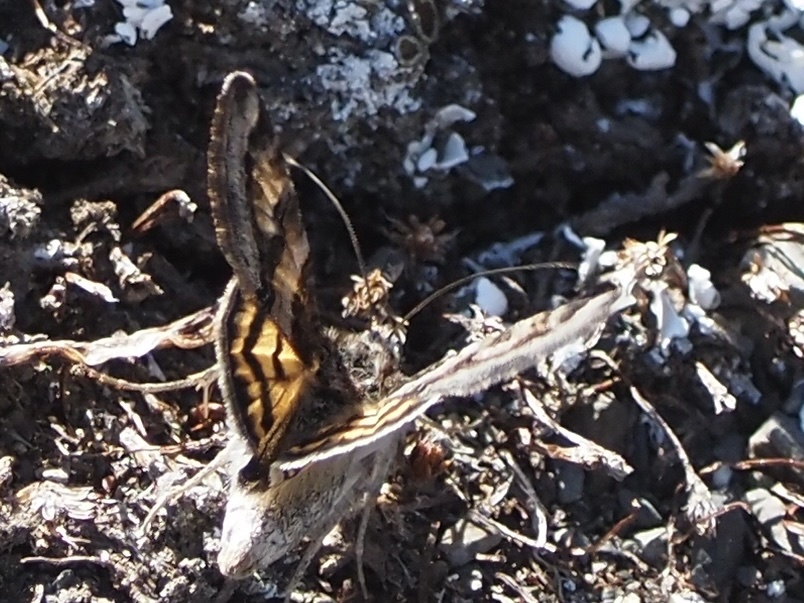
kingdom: Animalia
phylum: Arthropoda
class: Insecta
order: Lepidoptera
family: Erebidae
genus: Drasteria
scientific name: Drasteria petricola
